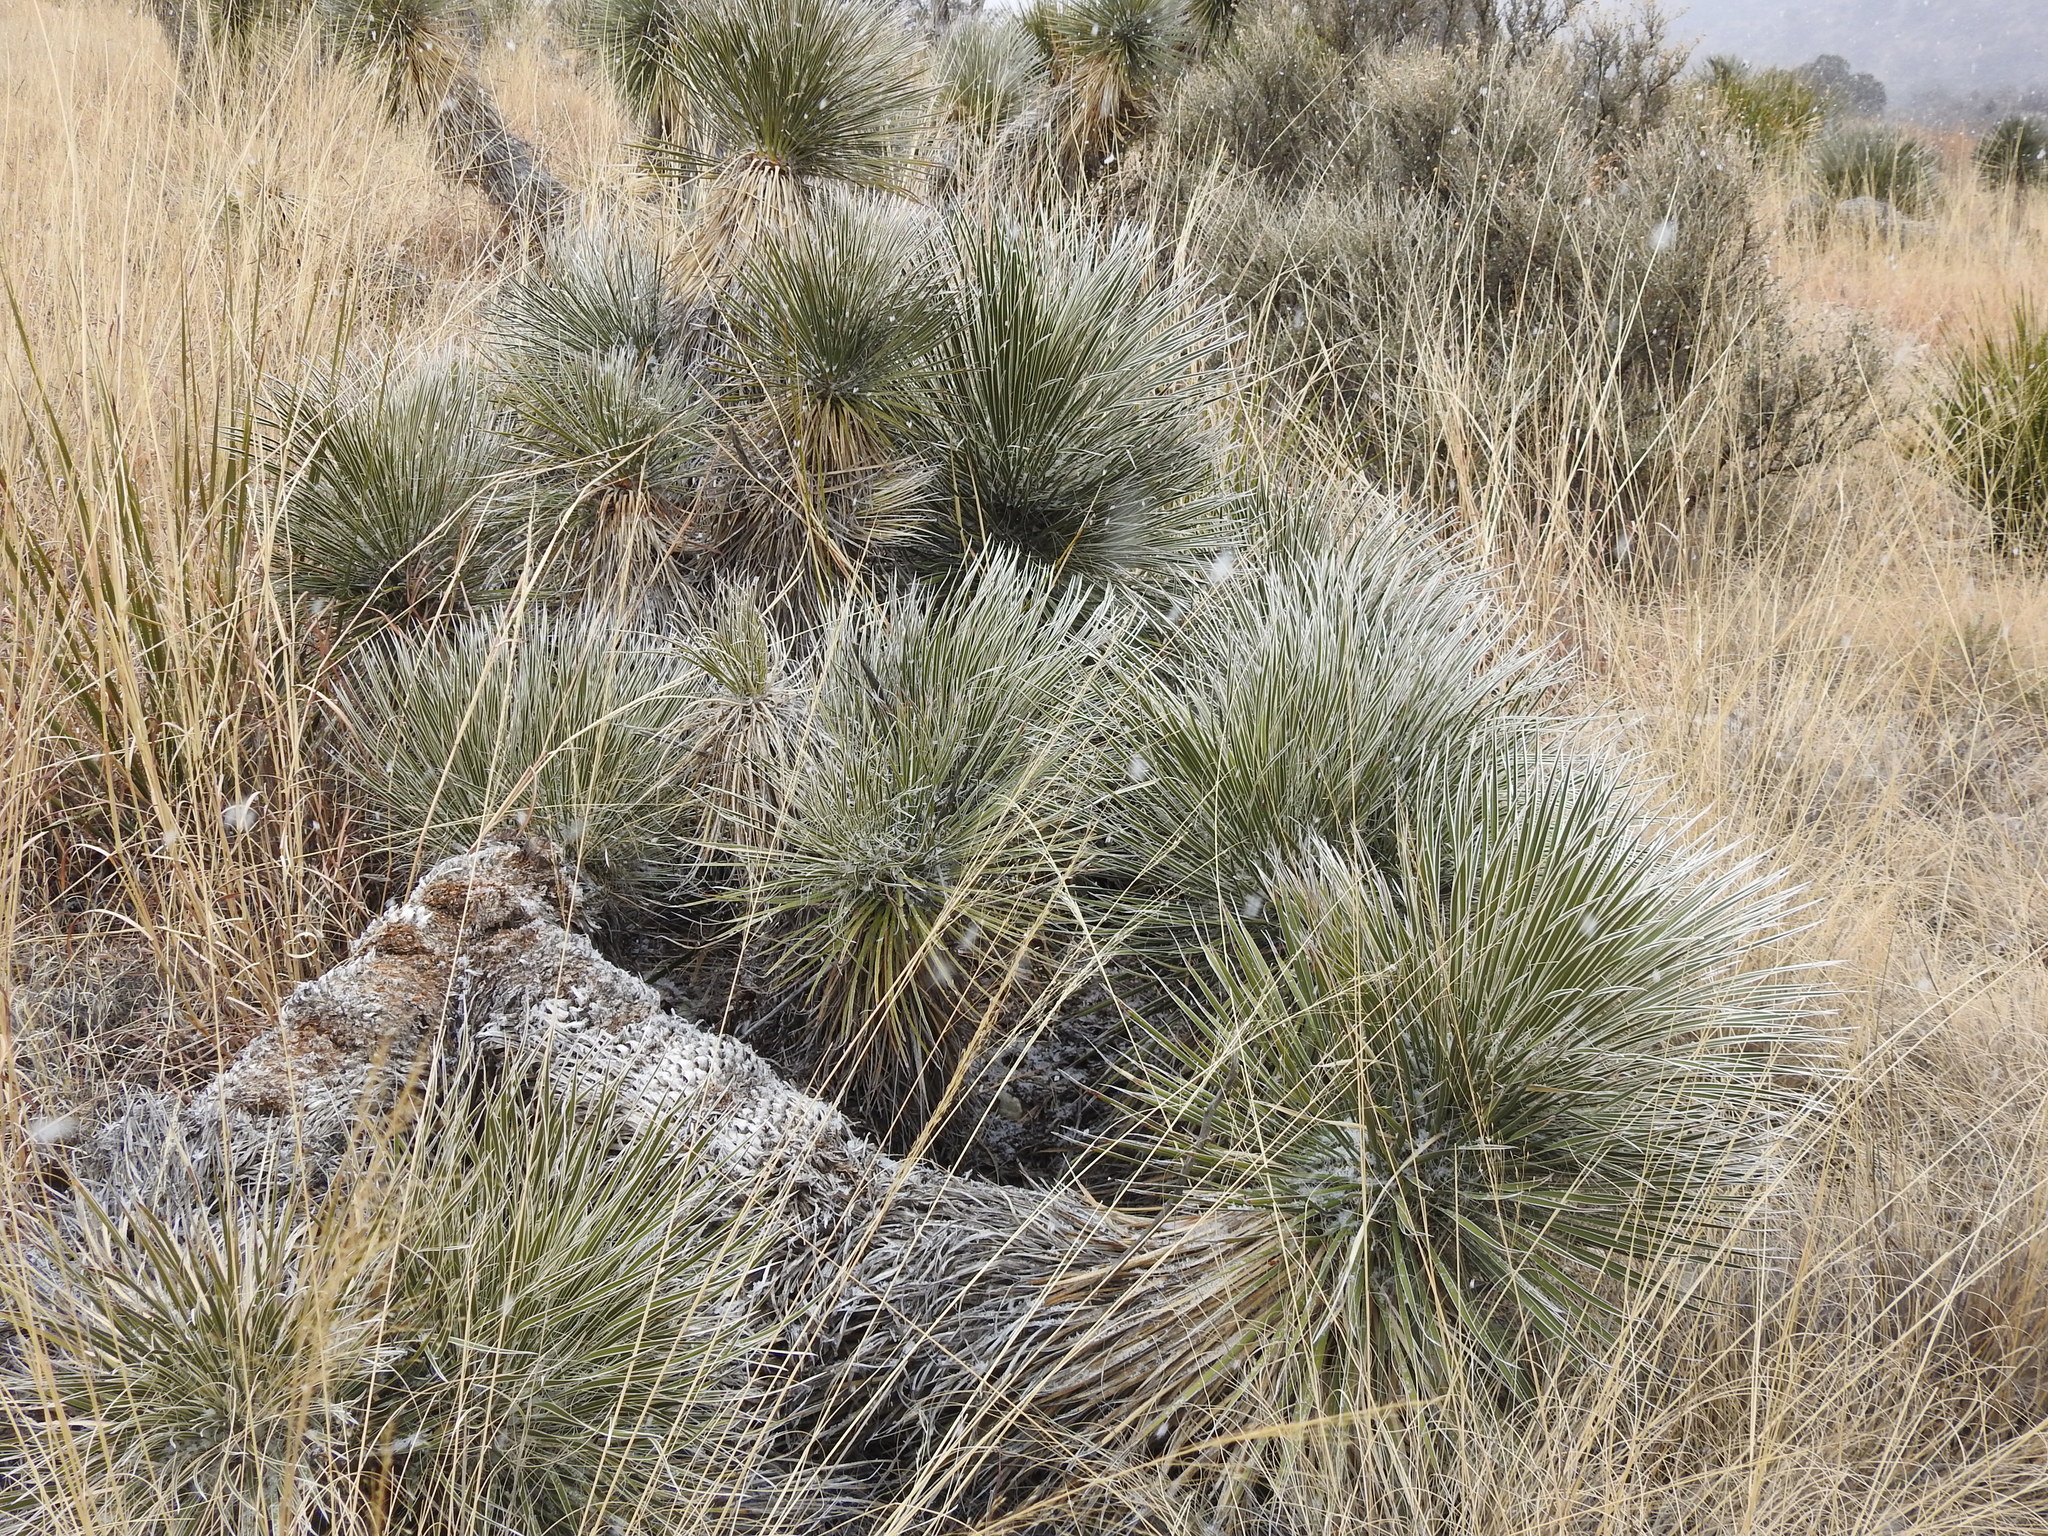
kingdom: Plantae
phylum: Tracheophyta
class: Liliopsida
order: Asparagales
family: Asparagaceae
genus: Yucca
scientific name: Yucca elata
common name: Palmella
